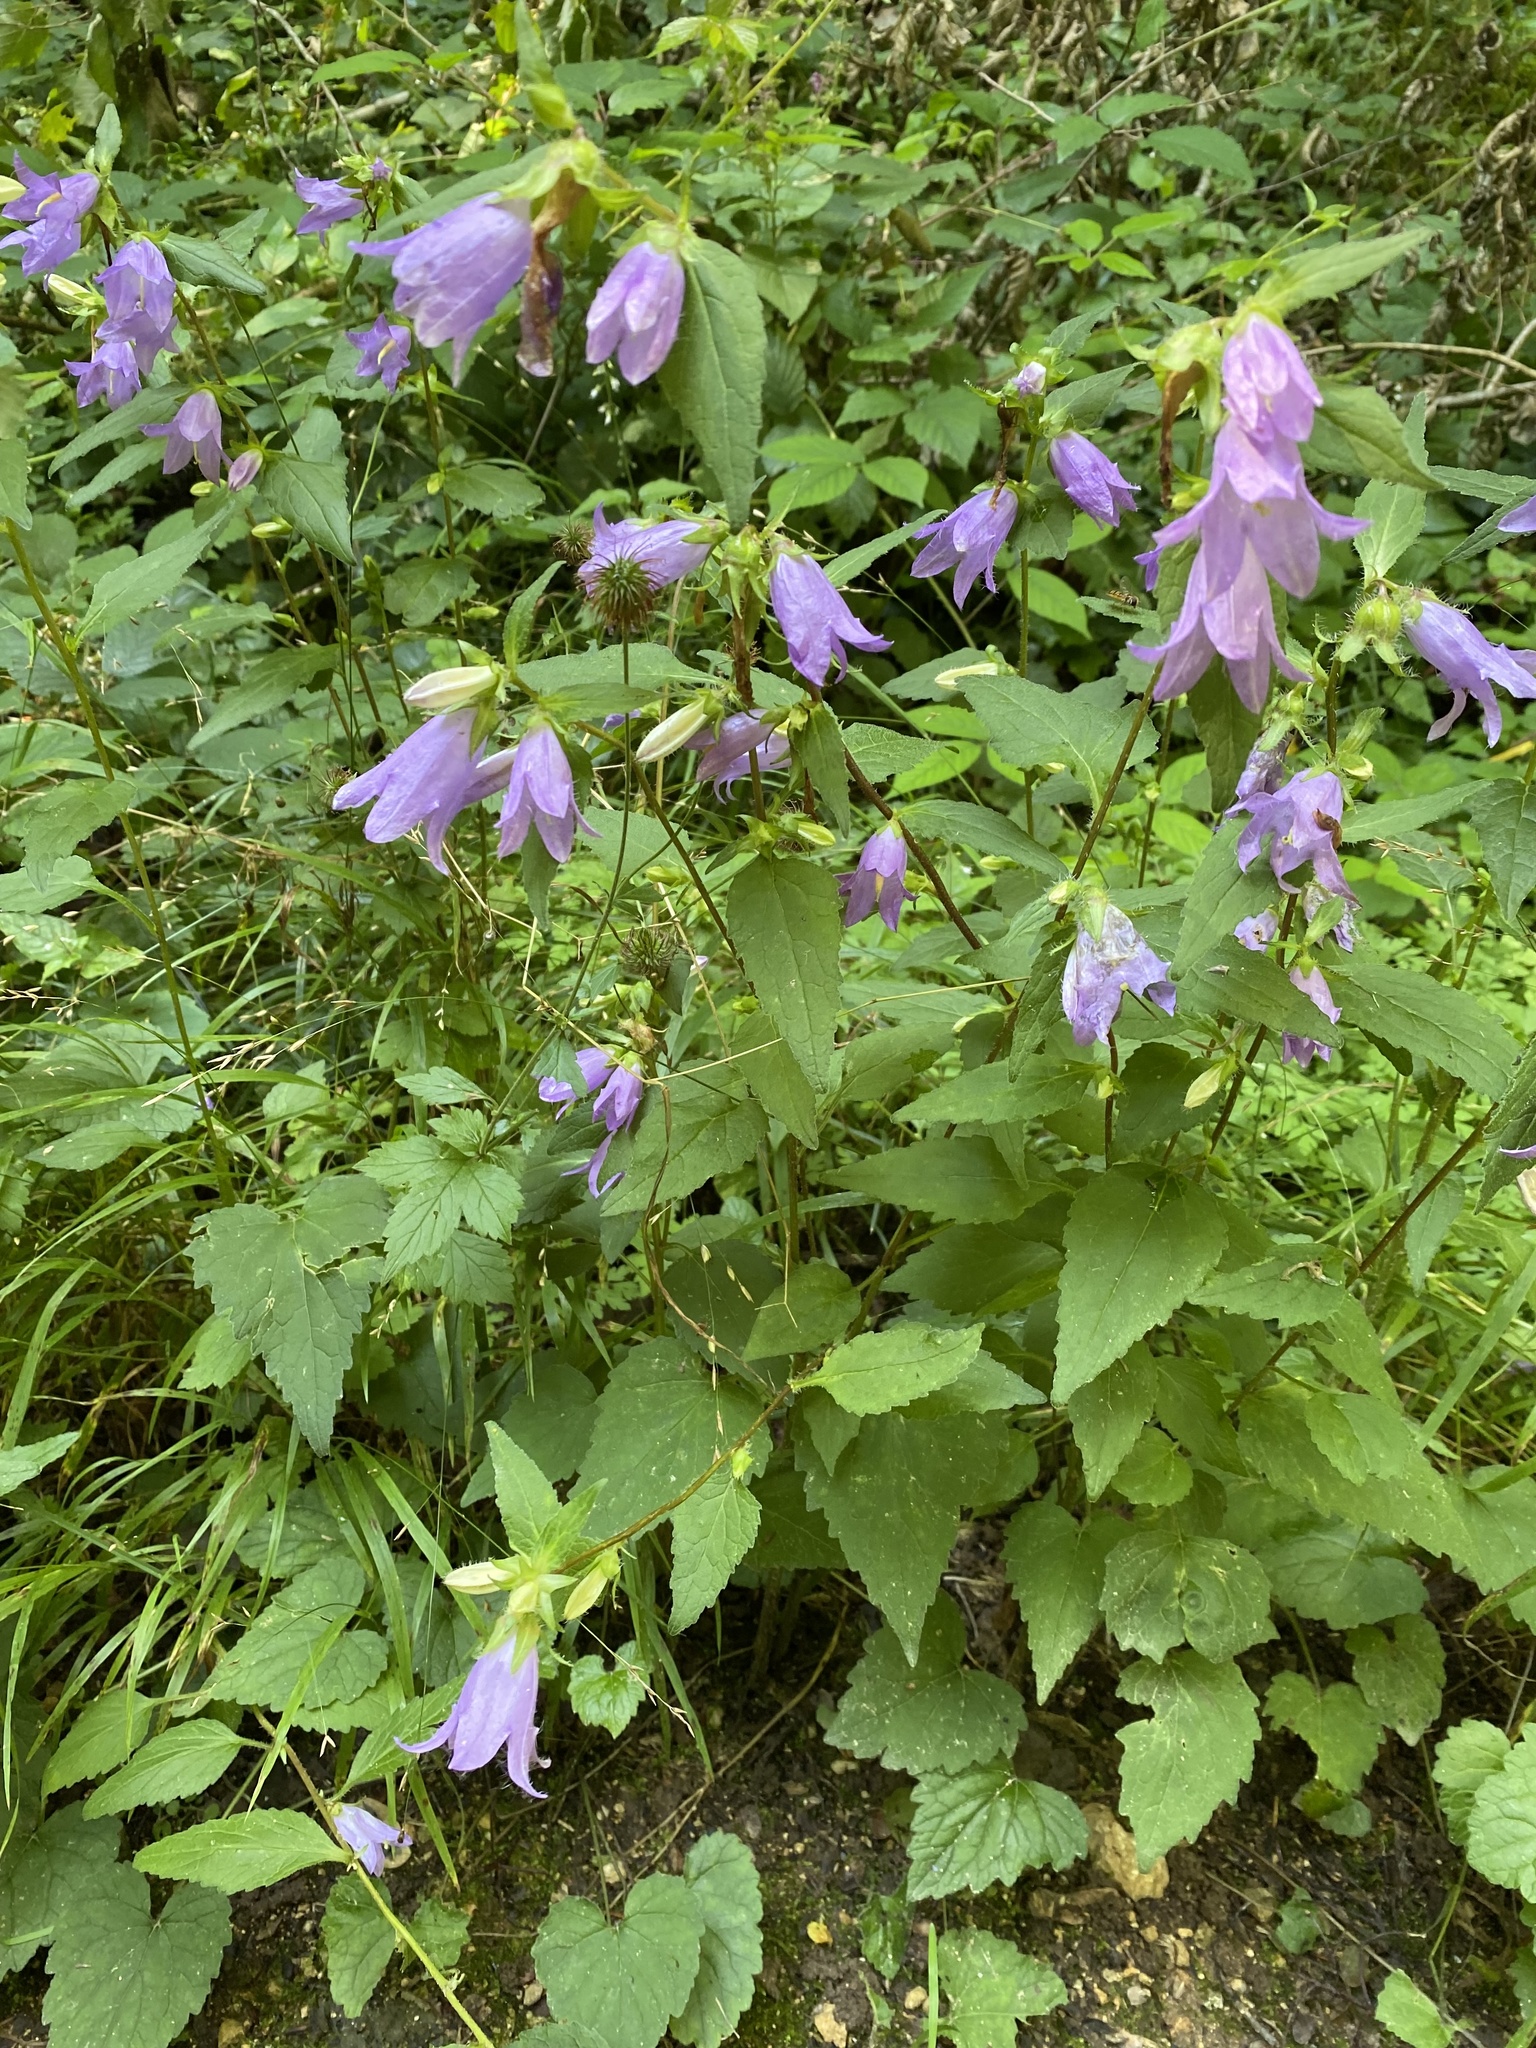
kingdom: Plantae
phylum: Tracheophyta
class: Magnoliopsida
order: Asterales
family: Campanulaceae
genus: Campanula
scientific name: Campanula trachelium
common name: Nettle-leaved bellflower
